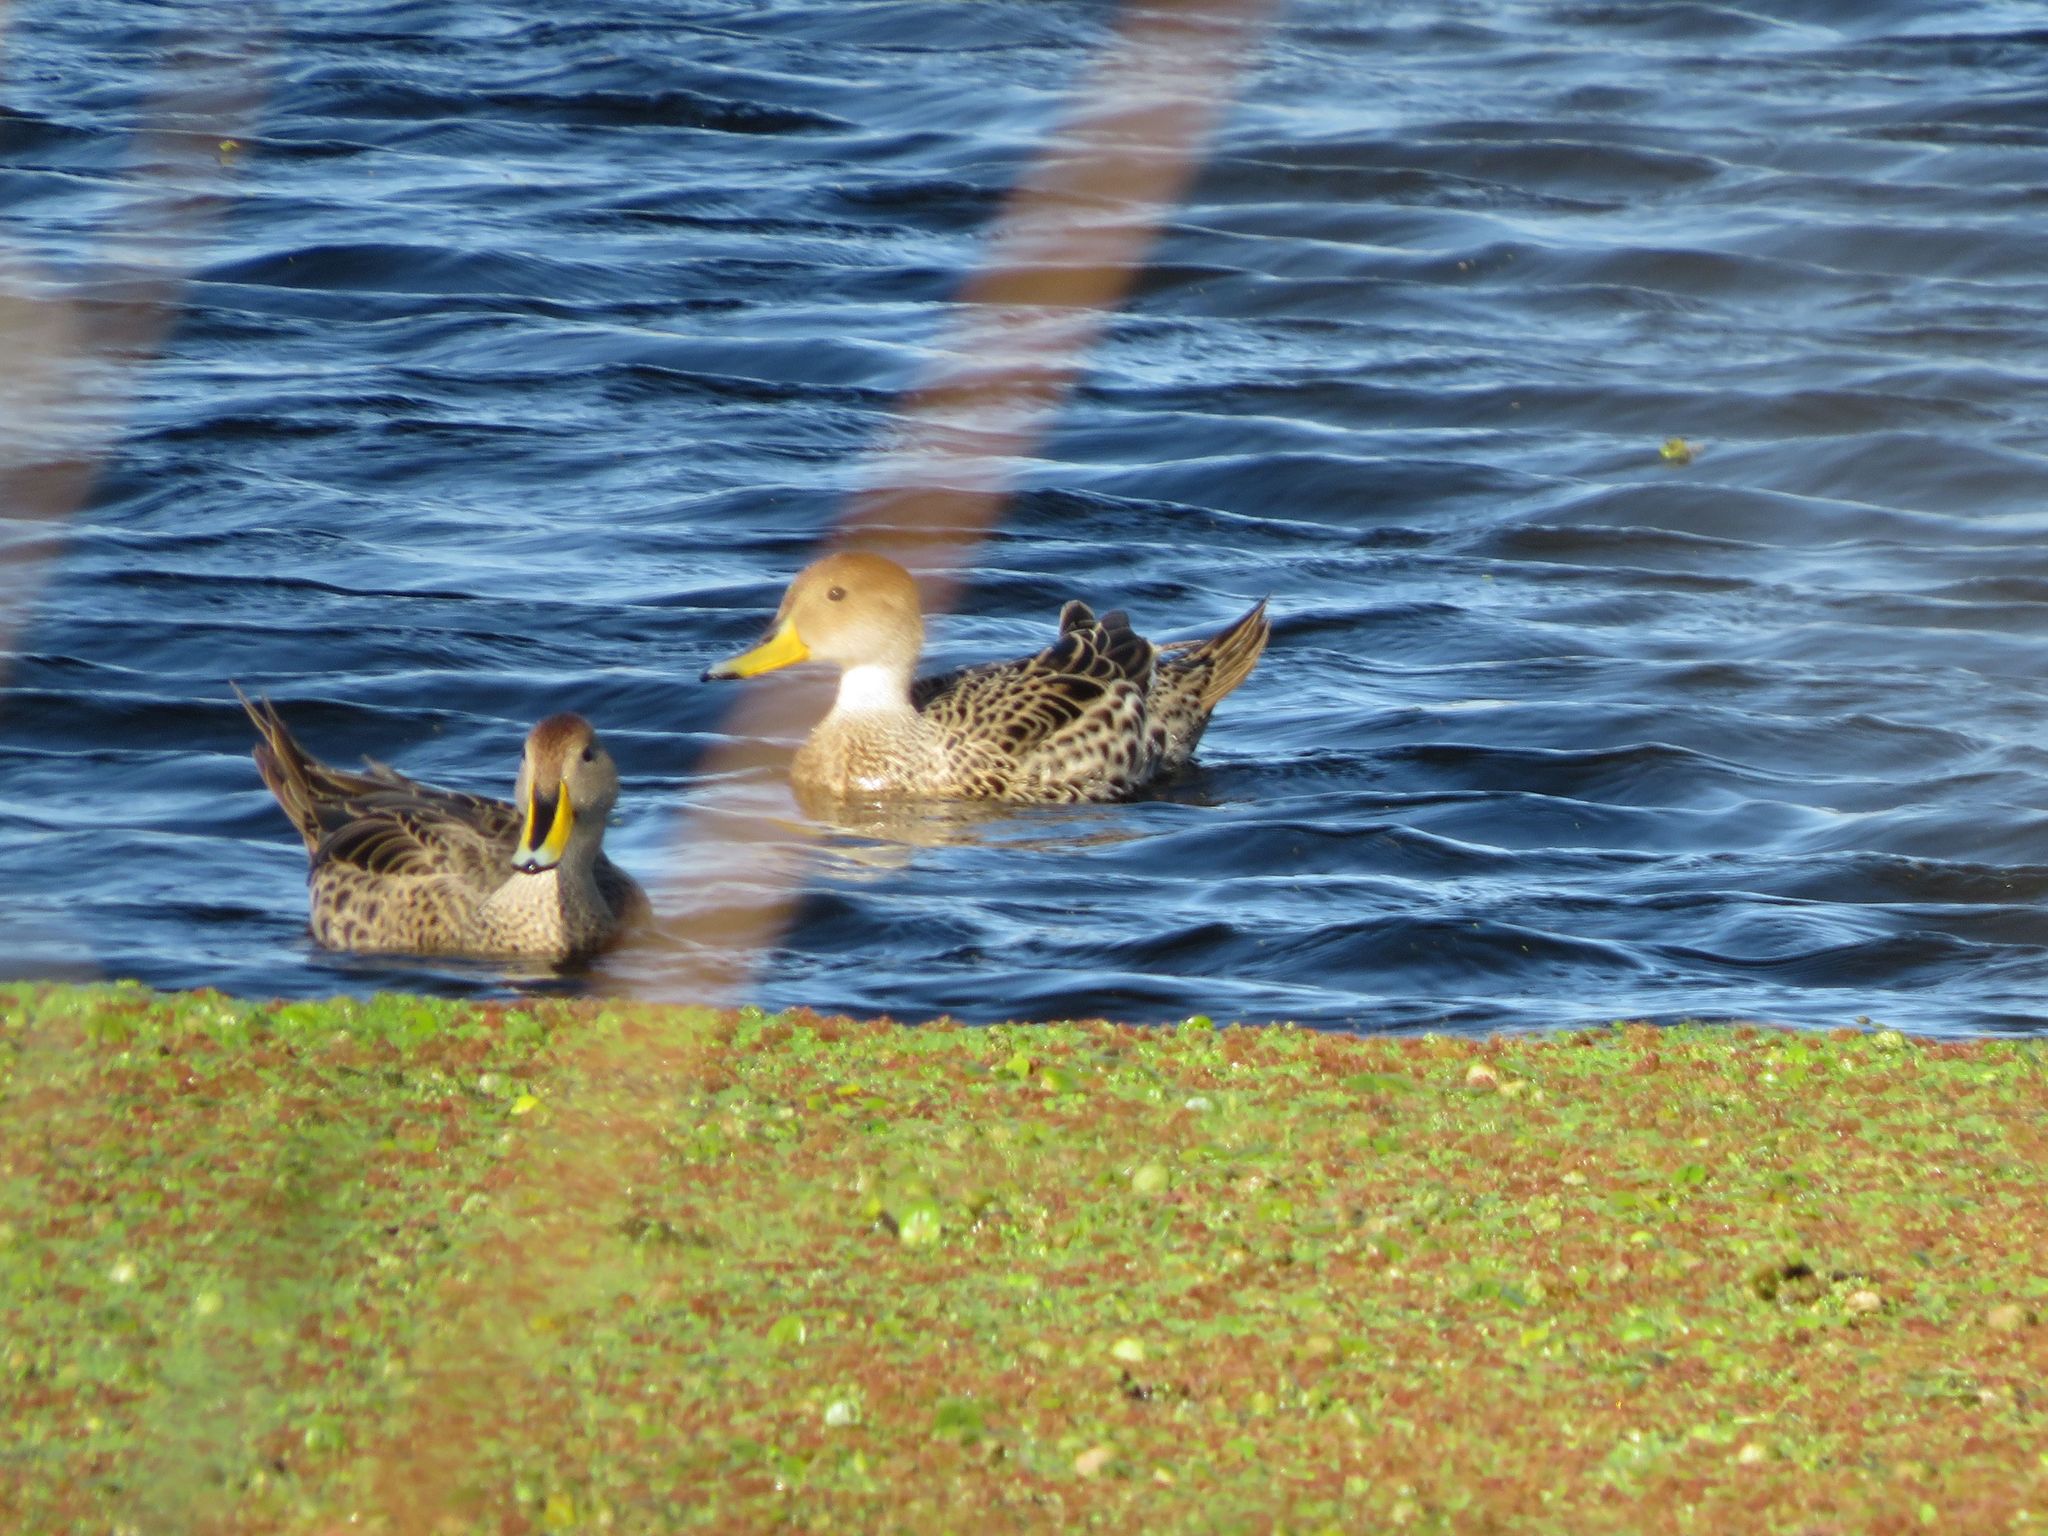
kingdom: Animalia
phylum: Chordata
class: Aves
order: Anseriformes
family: Anatidae
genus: Anas
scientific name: Anas georgica
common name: Yellow-billed pintail
